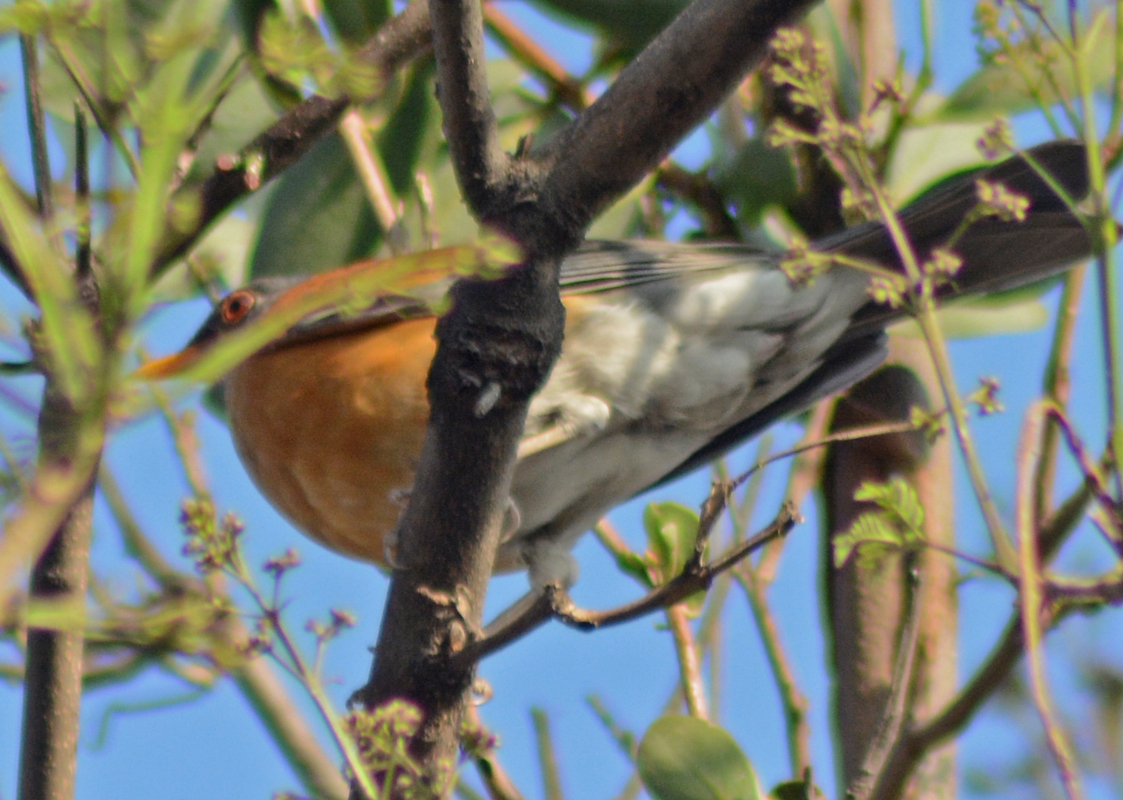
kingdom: Animalia
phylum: Chordata
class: Aves
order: Passeriformes
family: Turdidae
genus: Turdus
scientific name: Turdus rufopalliatus
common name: Rufous-backed robin
